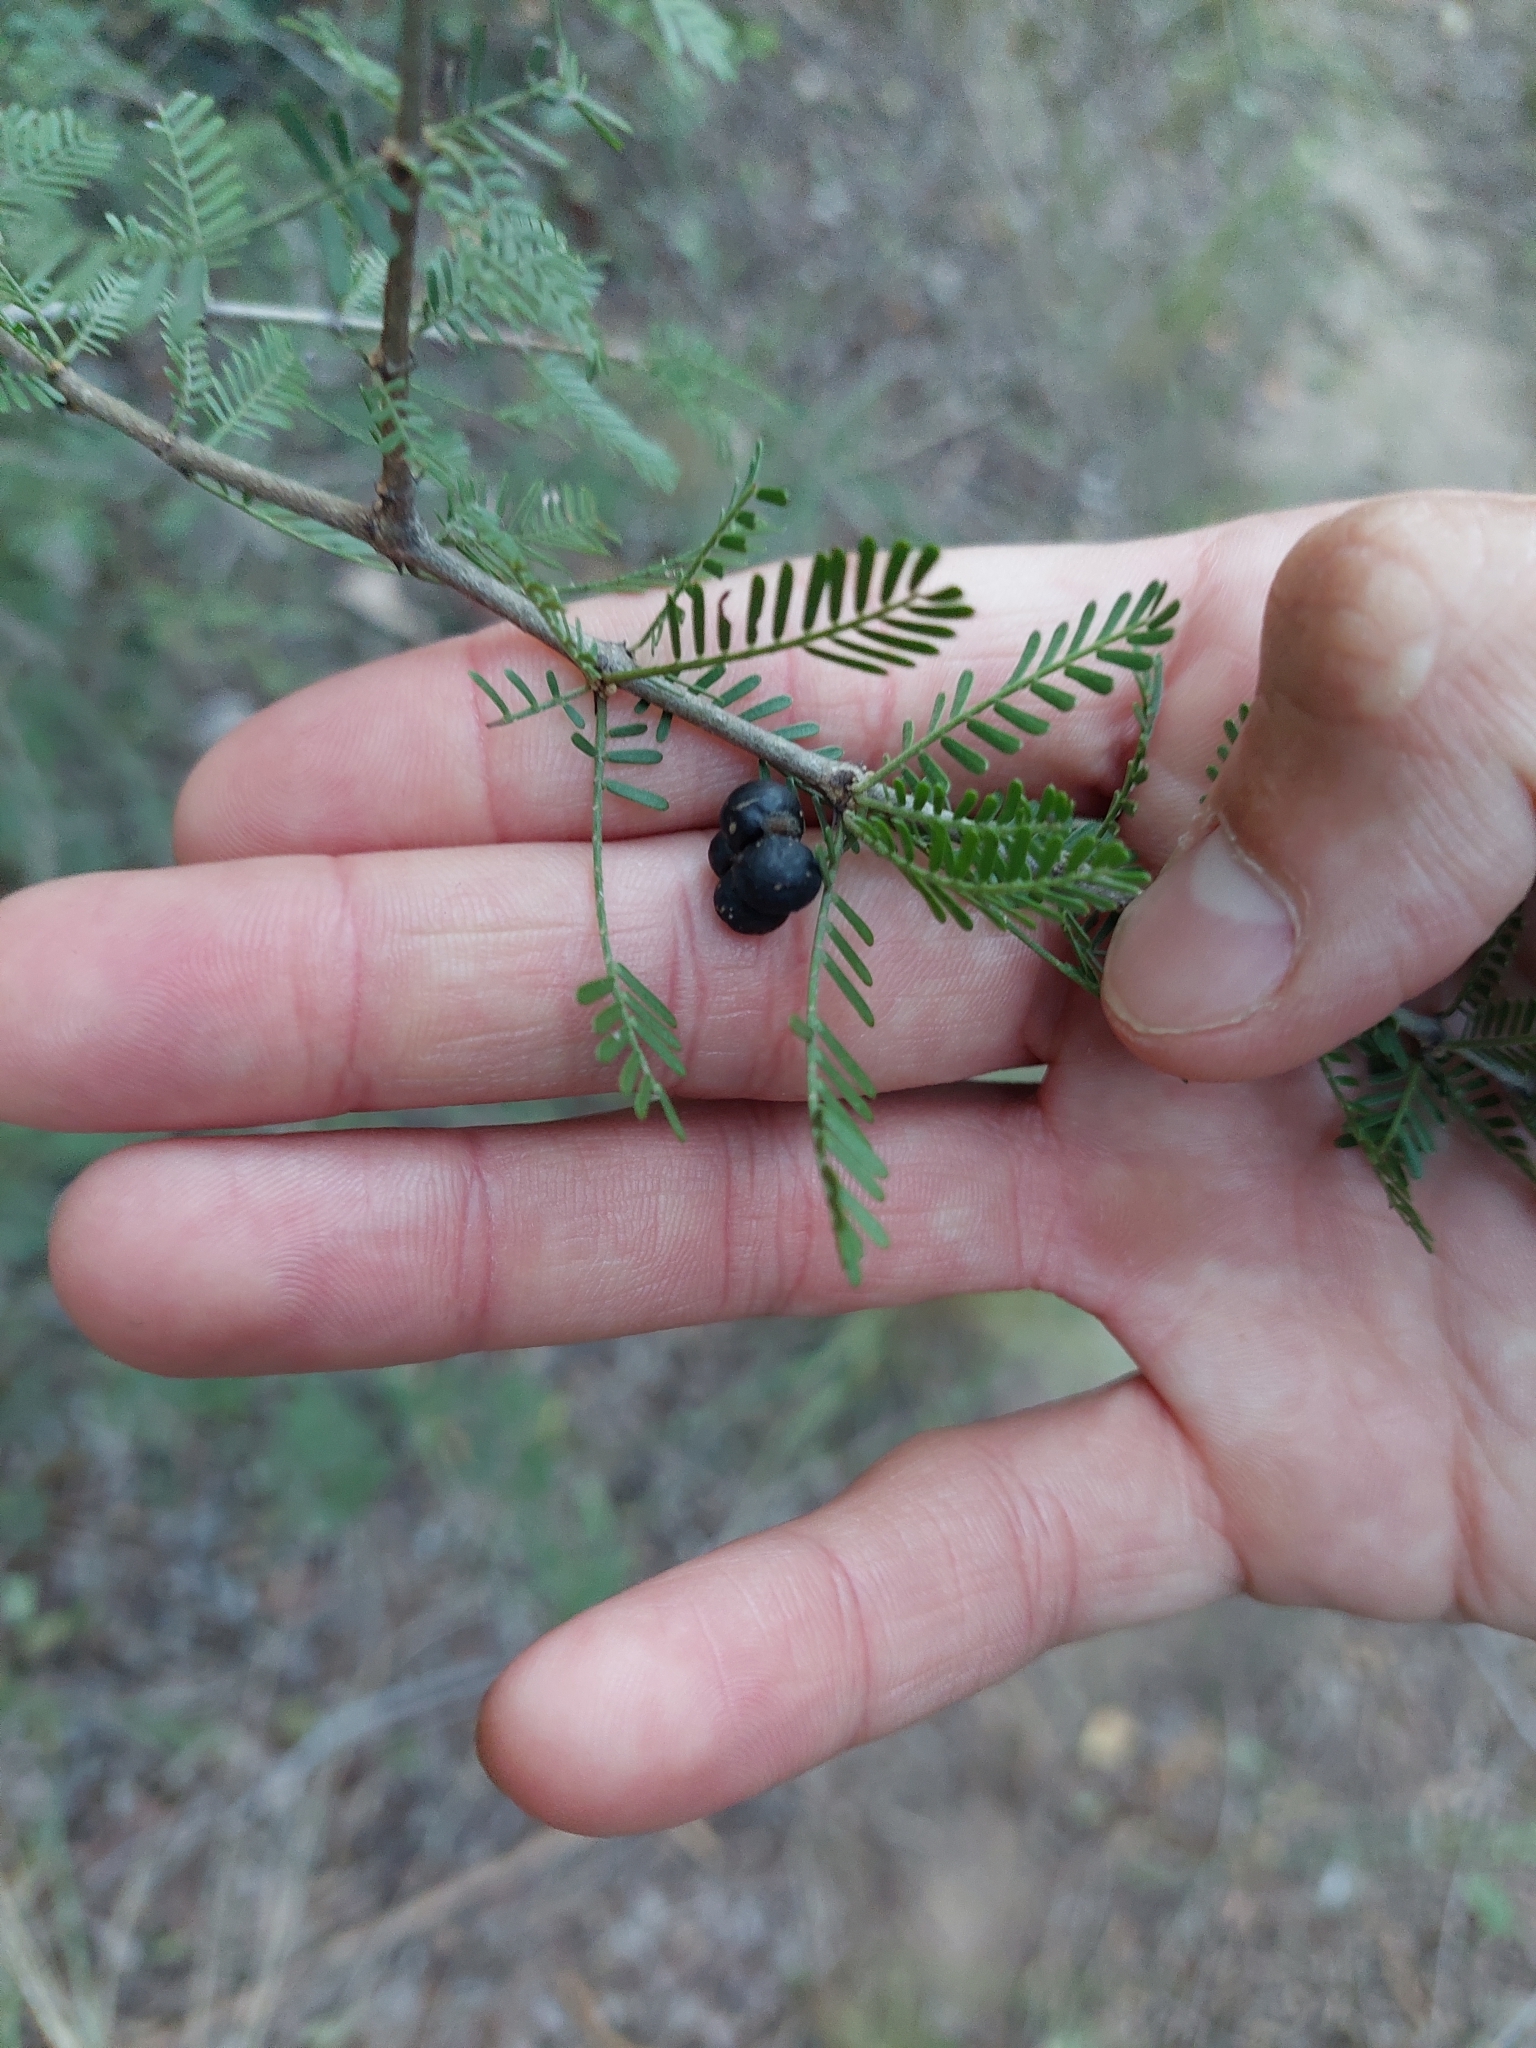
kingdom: Plantae
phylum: Tracheophyta
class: Magnoliopsida
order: Zygophyllales
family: Zygophyllaceae
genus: Porlieria
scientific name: Porlieria microphylla
